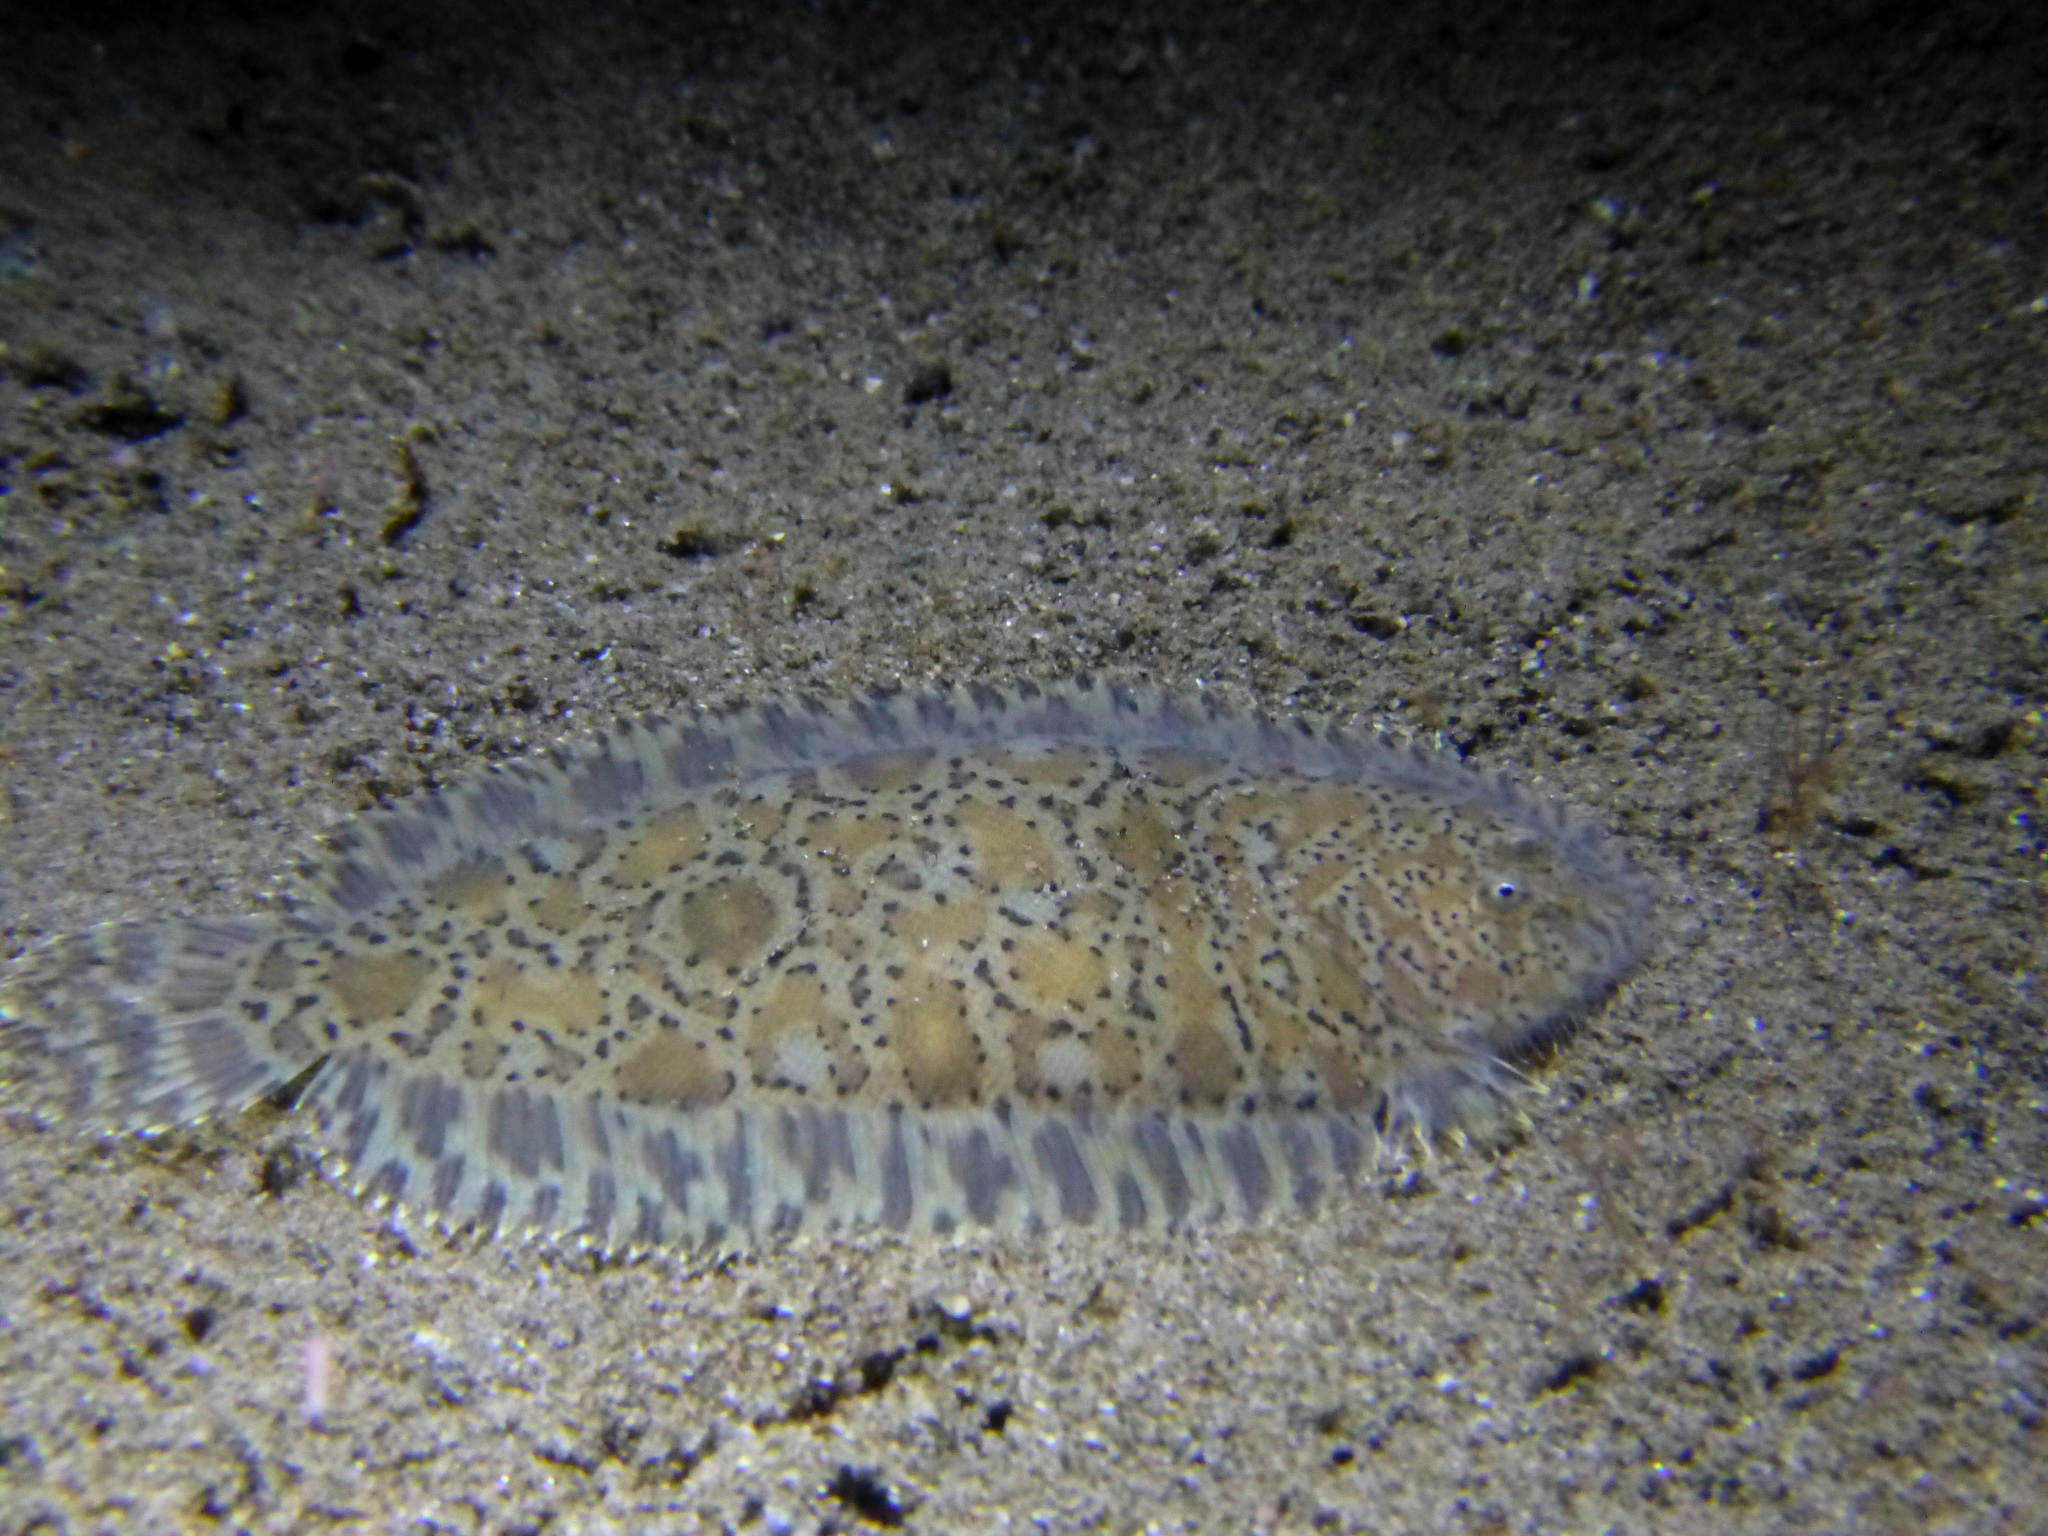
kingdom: Animalia
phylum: Chordata
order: Pleuronectiformes
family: Soleidae
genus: Liachirus
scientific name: Liachirus melanospilos
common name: Carpet sole
